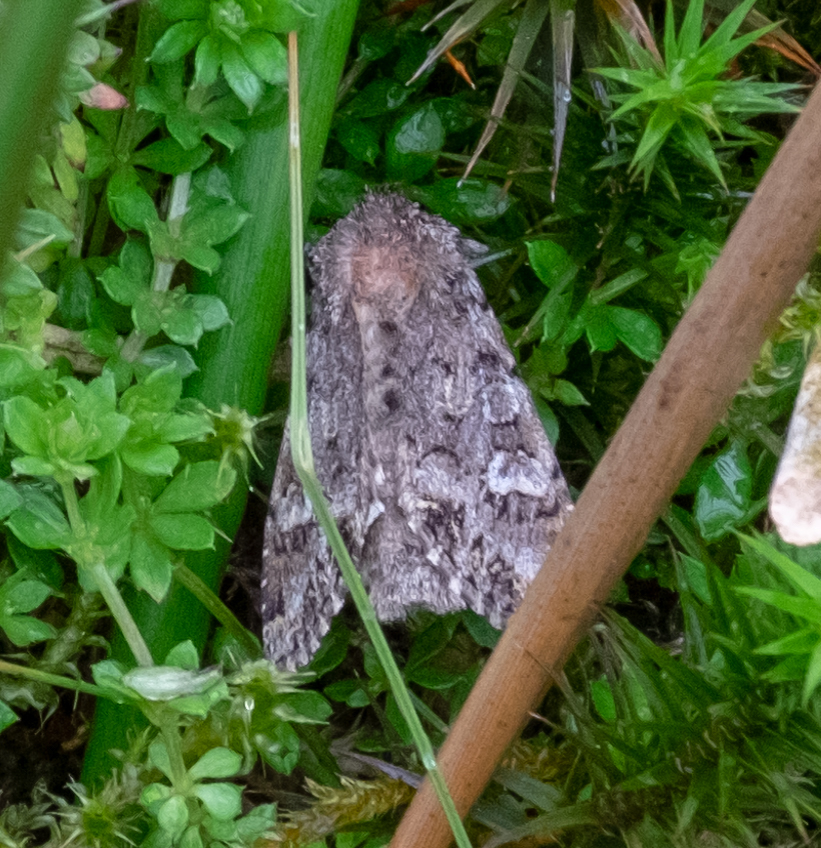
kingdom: Animalia
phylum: Arthropoda
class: Insecta
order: Lepidoptera
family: Noctuidae
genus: Polia
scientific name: Polia nebulosa
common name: Grey arches
